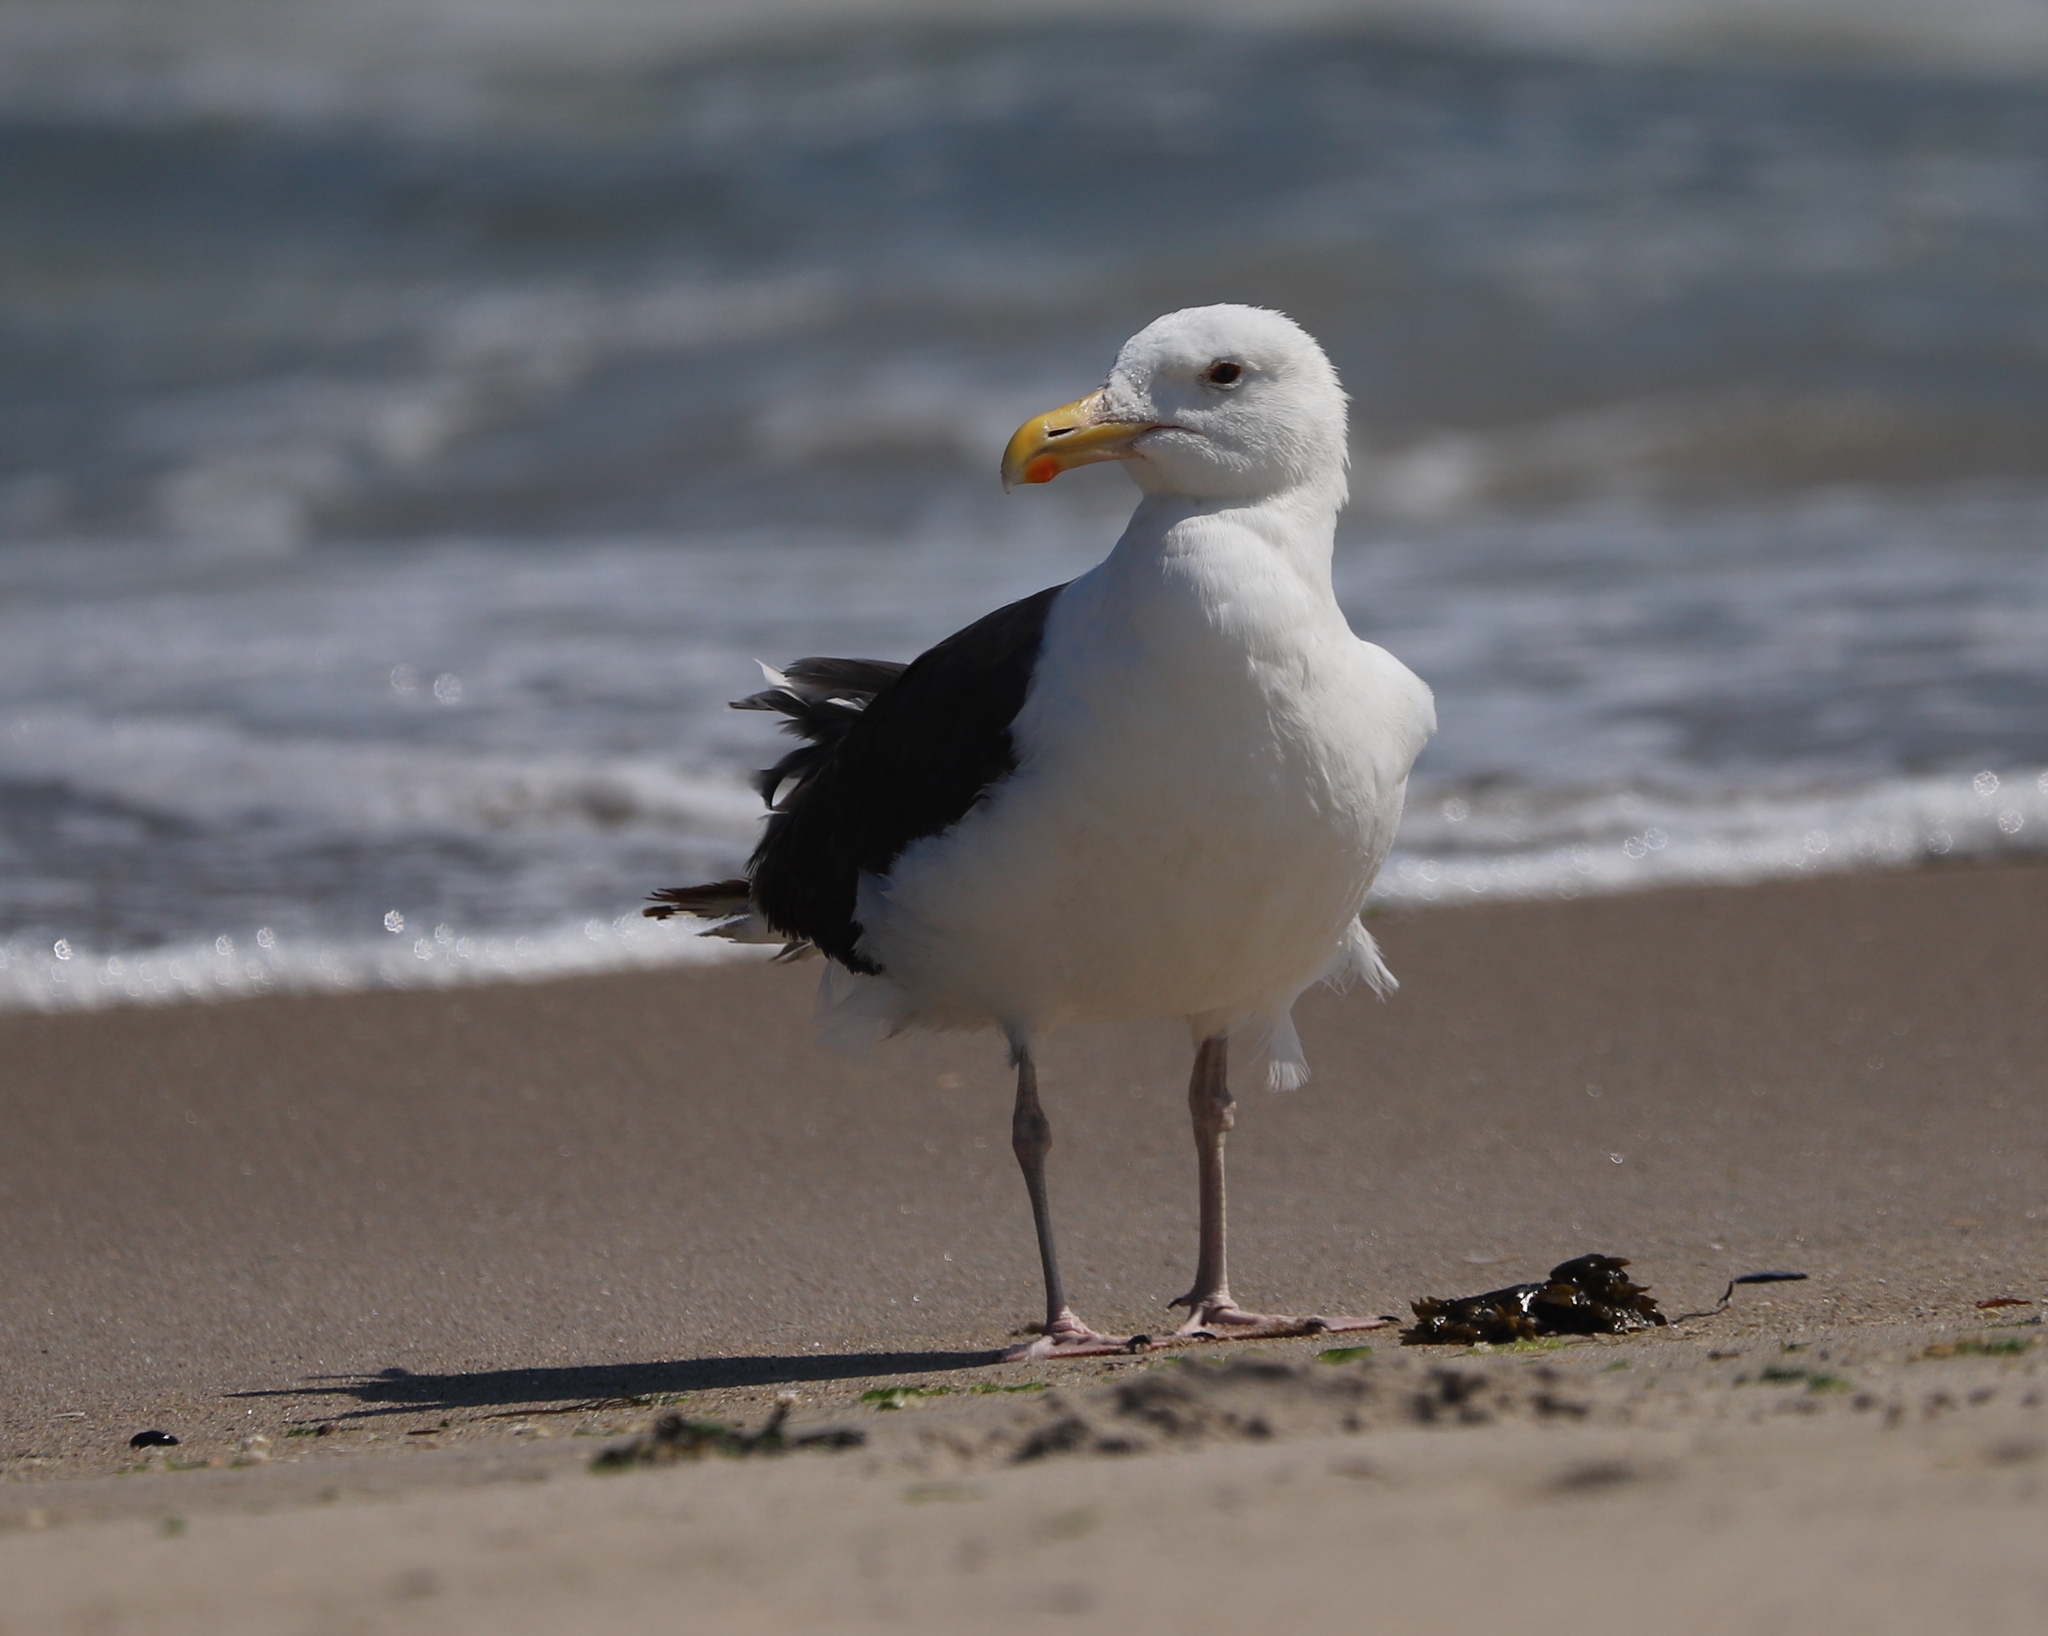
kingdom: Animalia
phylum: Chordata
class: Aves
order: Charadriiformes
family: Laridae
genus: Larus
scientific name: Larus marinus
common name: Great black-backed gull
